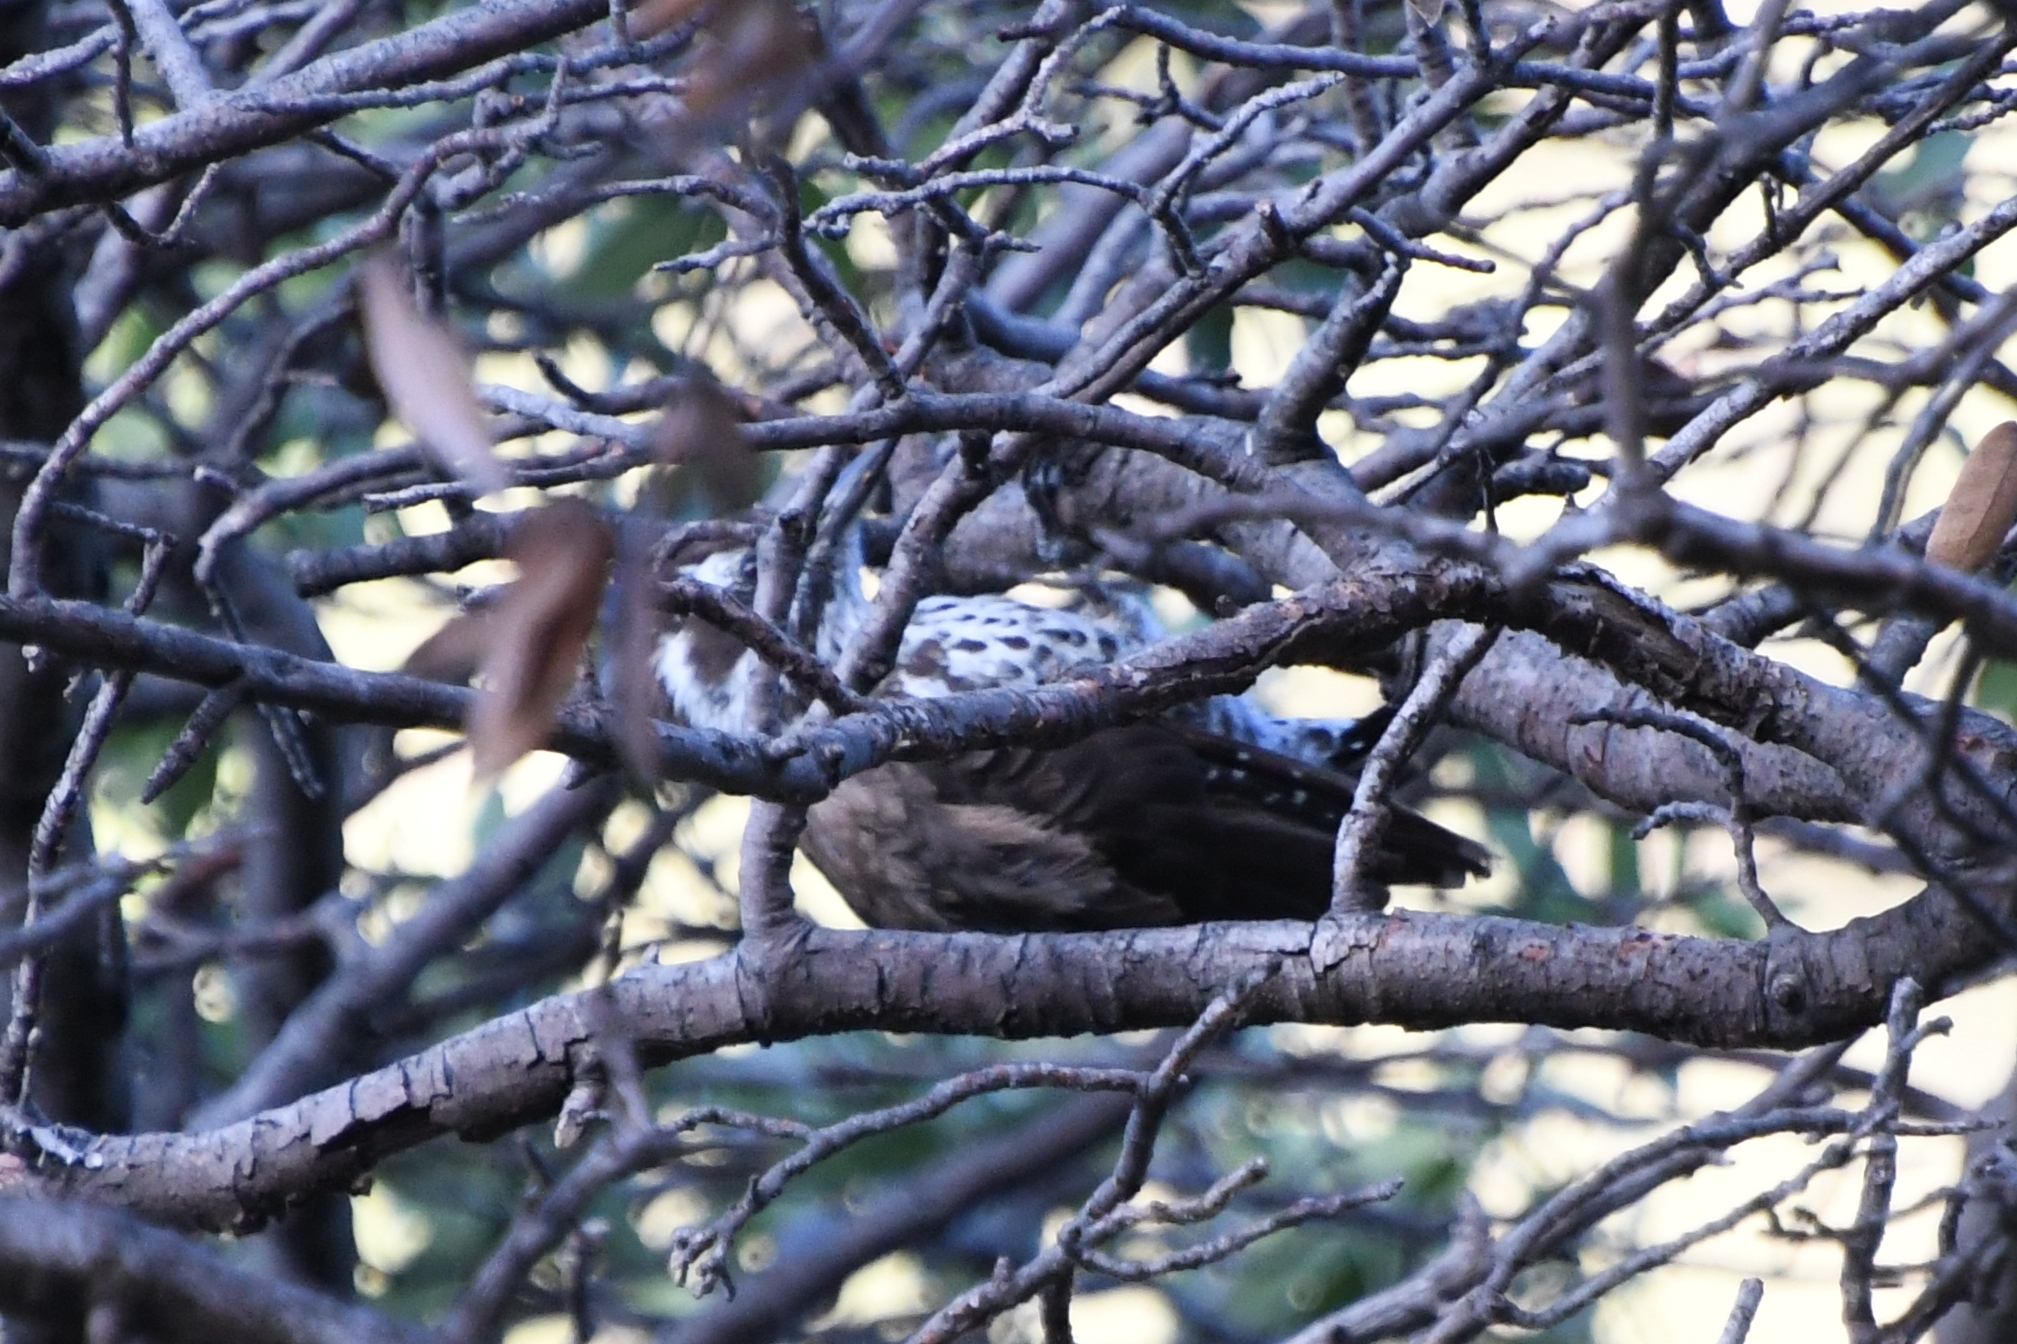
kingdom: Animalia
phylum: Chordata
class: Aves
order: Piciformes
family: Picidae
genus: Leuconotopicus
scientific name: Leuconotopicus arizonae
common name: Arizona woodpecker
